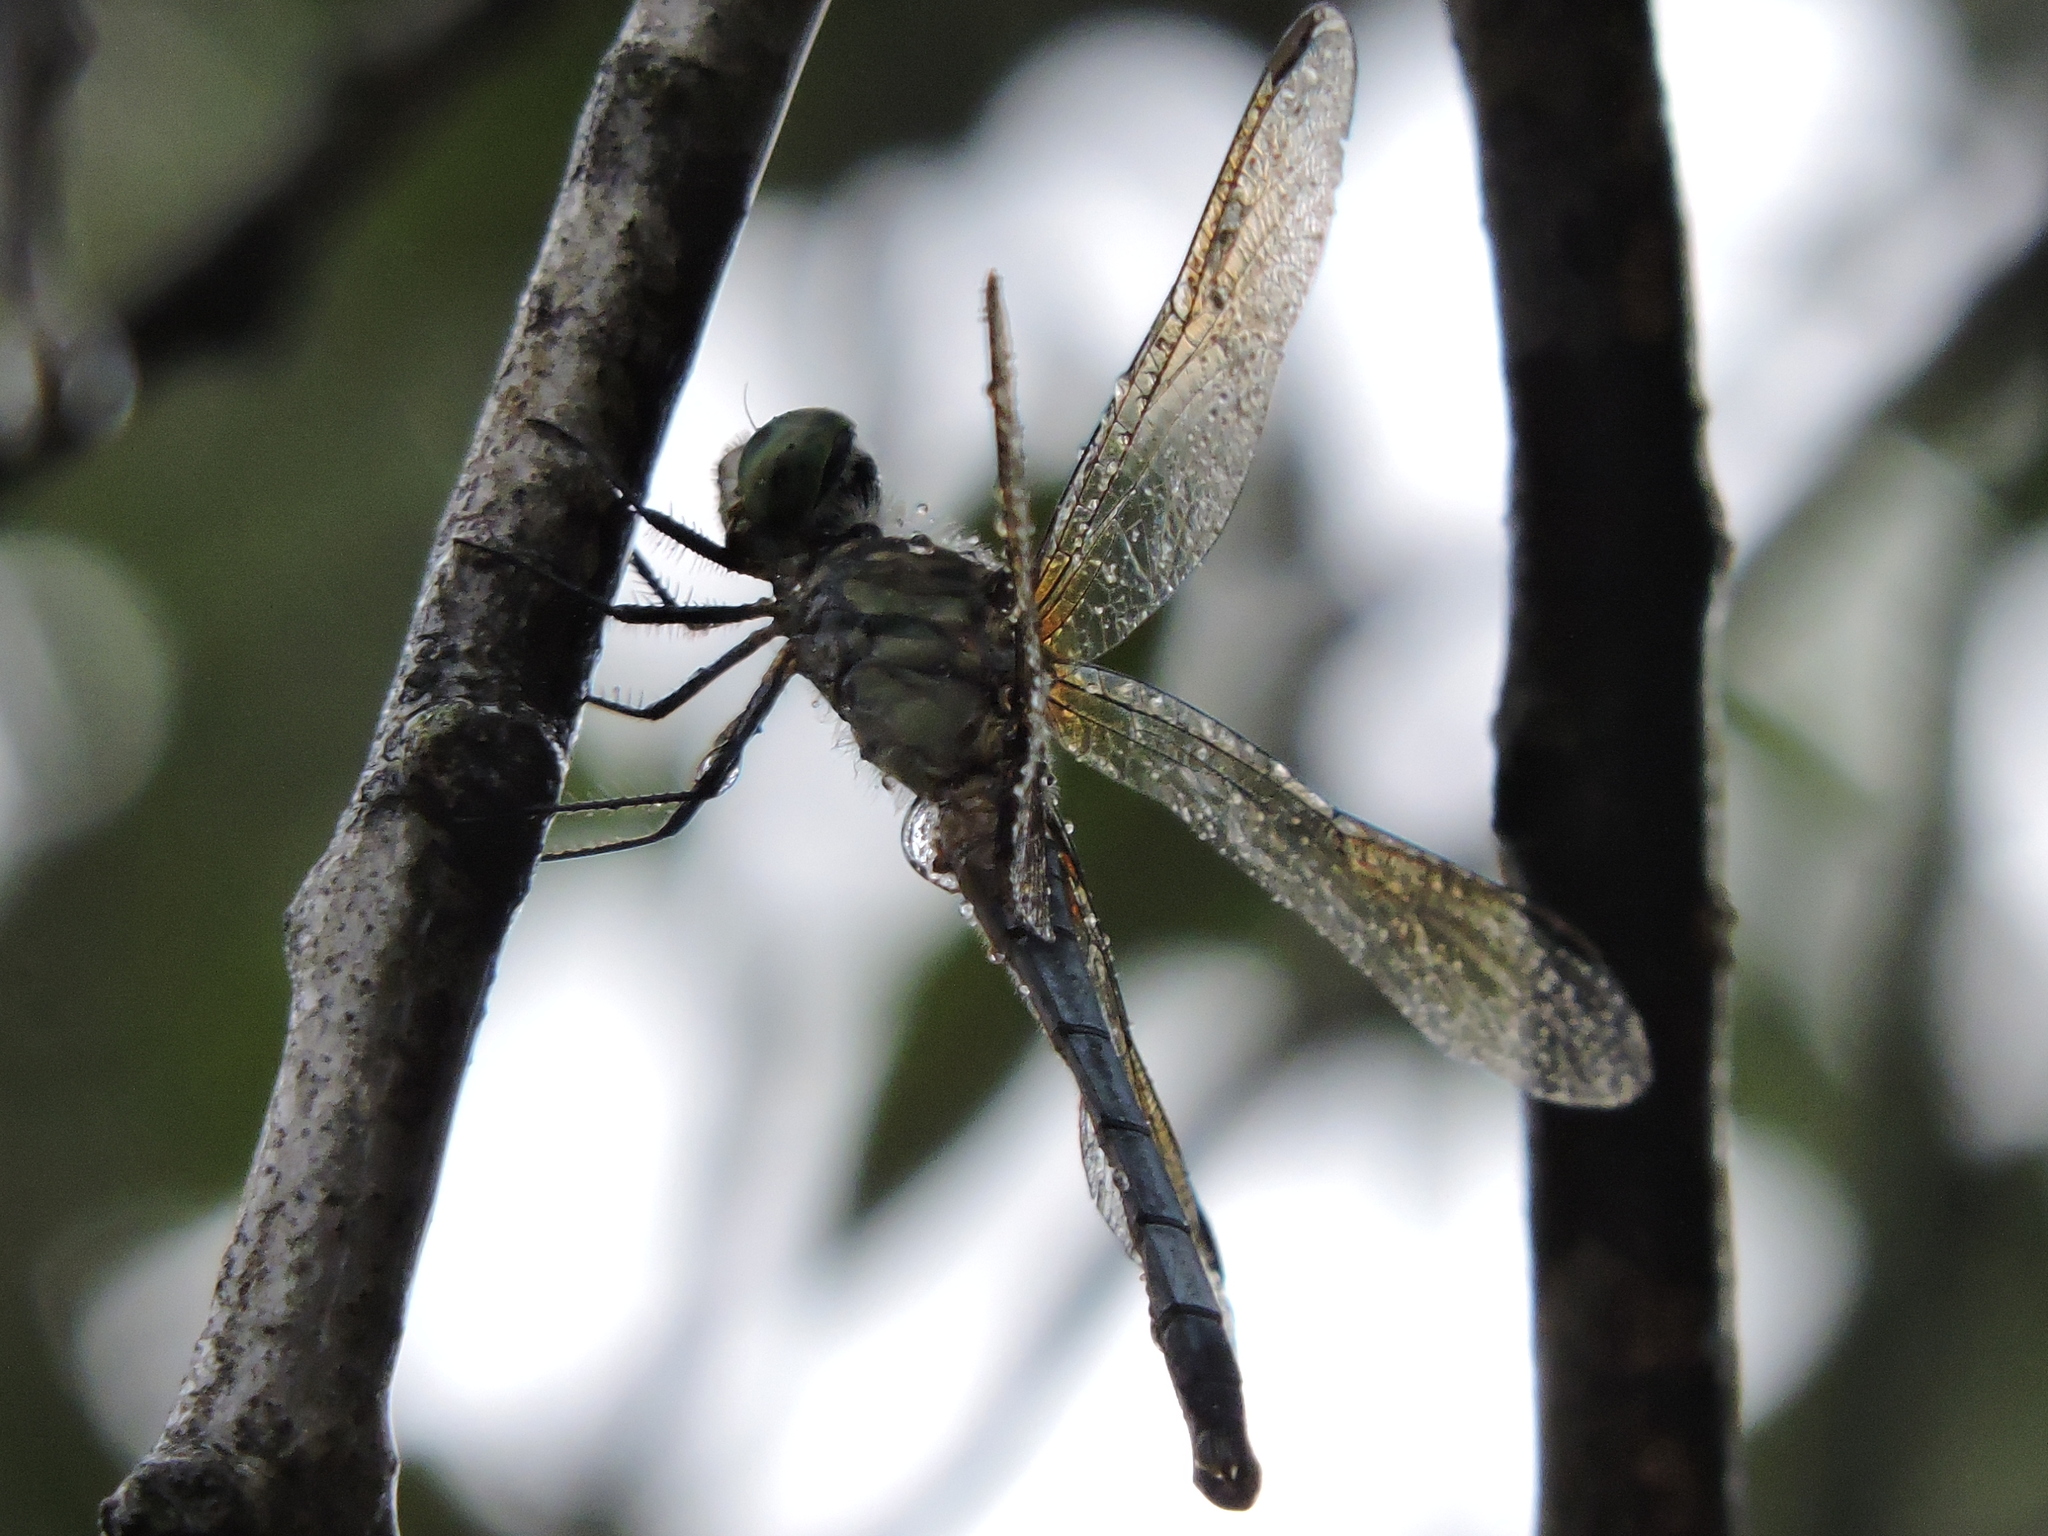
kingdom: Animalia
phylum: Arthropoda
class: Insecta
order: Odonata
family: Libellulidae
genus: Pachydiplax
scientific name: Pachydiplax longipennis
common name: Blue dasher
